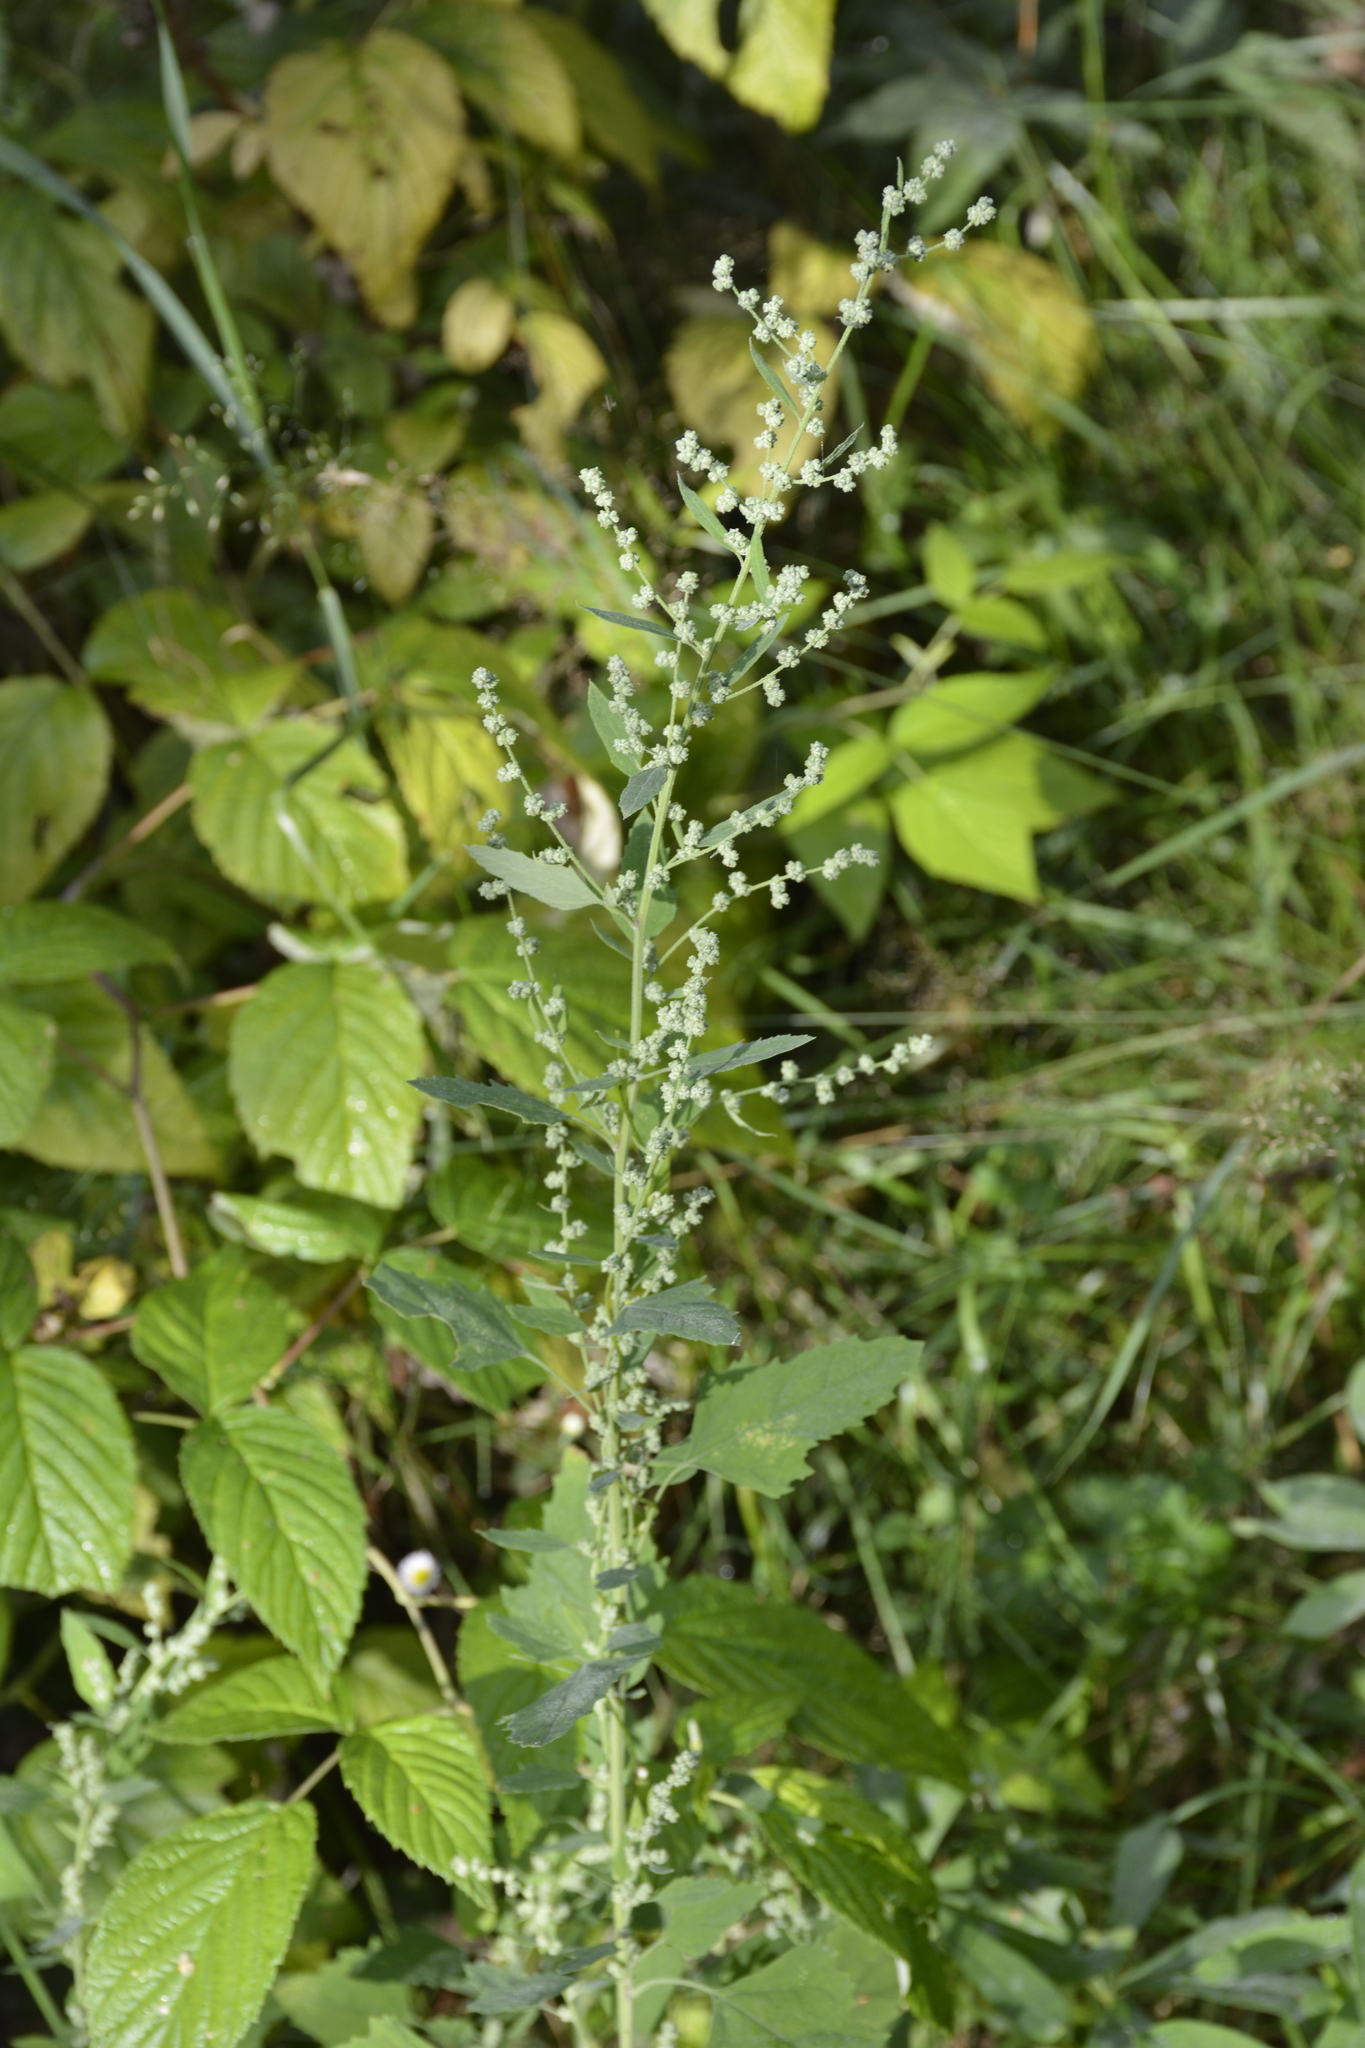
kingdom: Plantae
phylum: Tracheophyta
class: Magnoliopsida
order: Caryophyllales
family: Amaranthaceae
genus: Chenopodium
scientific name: Chenopodium album
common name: Fat-hen
